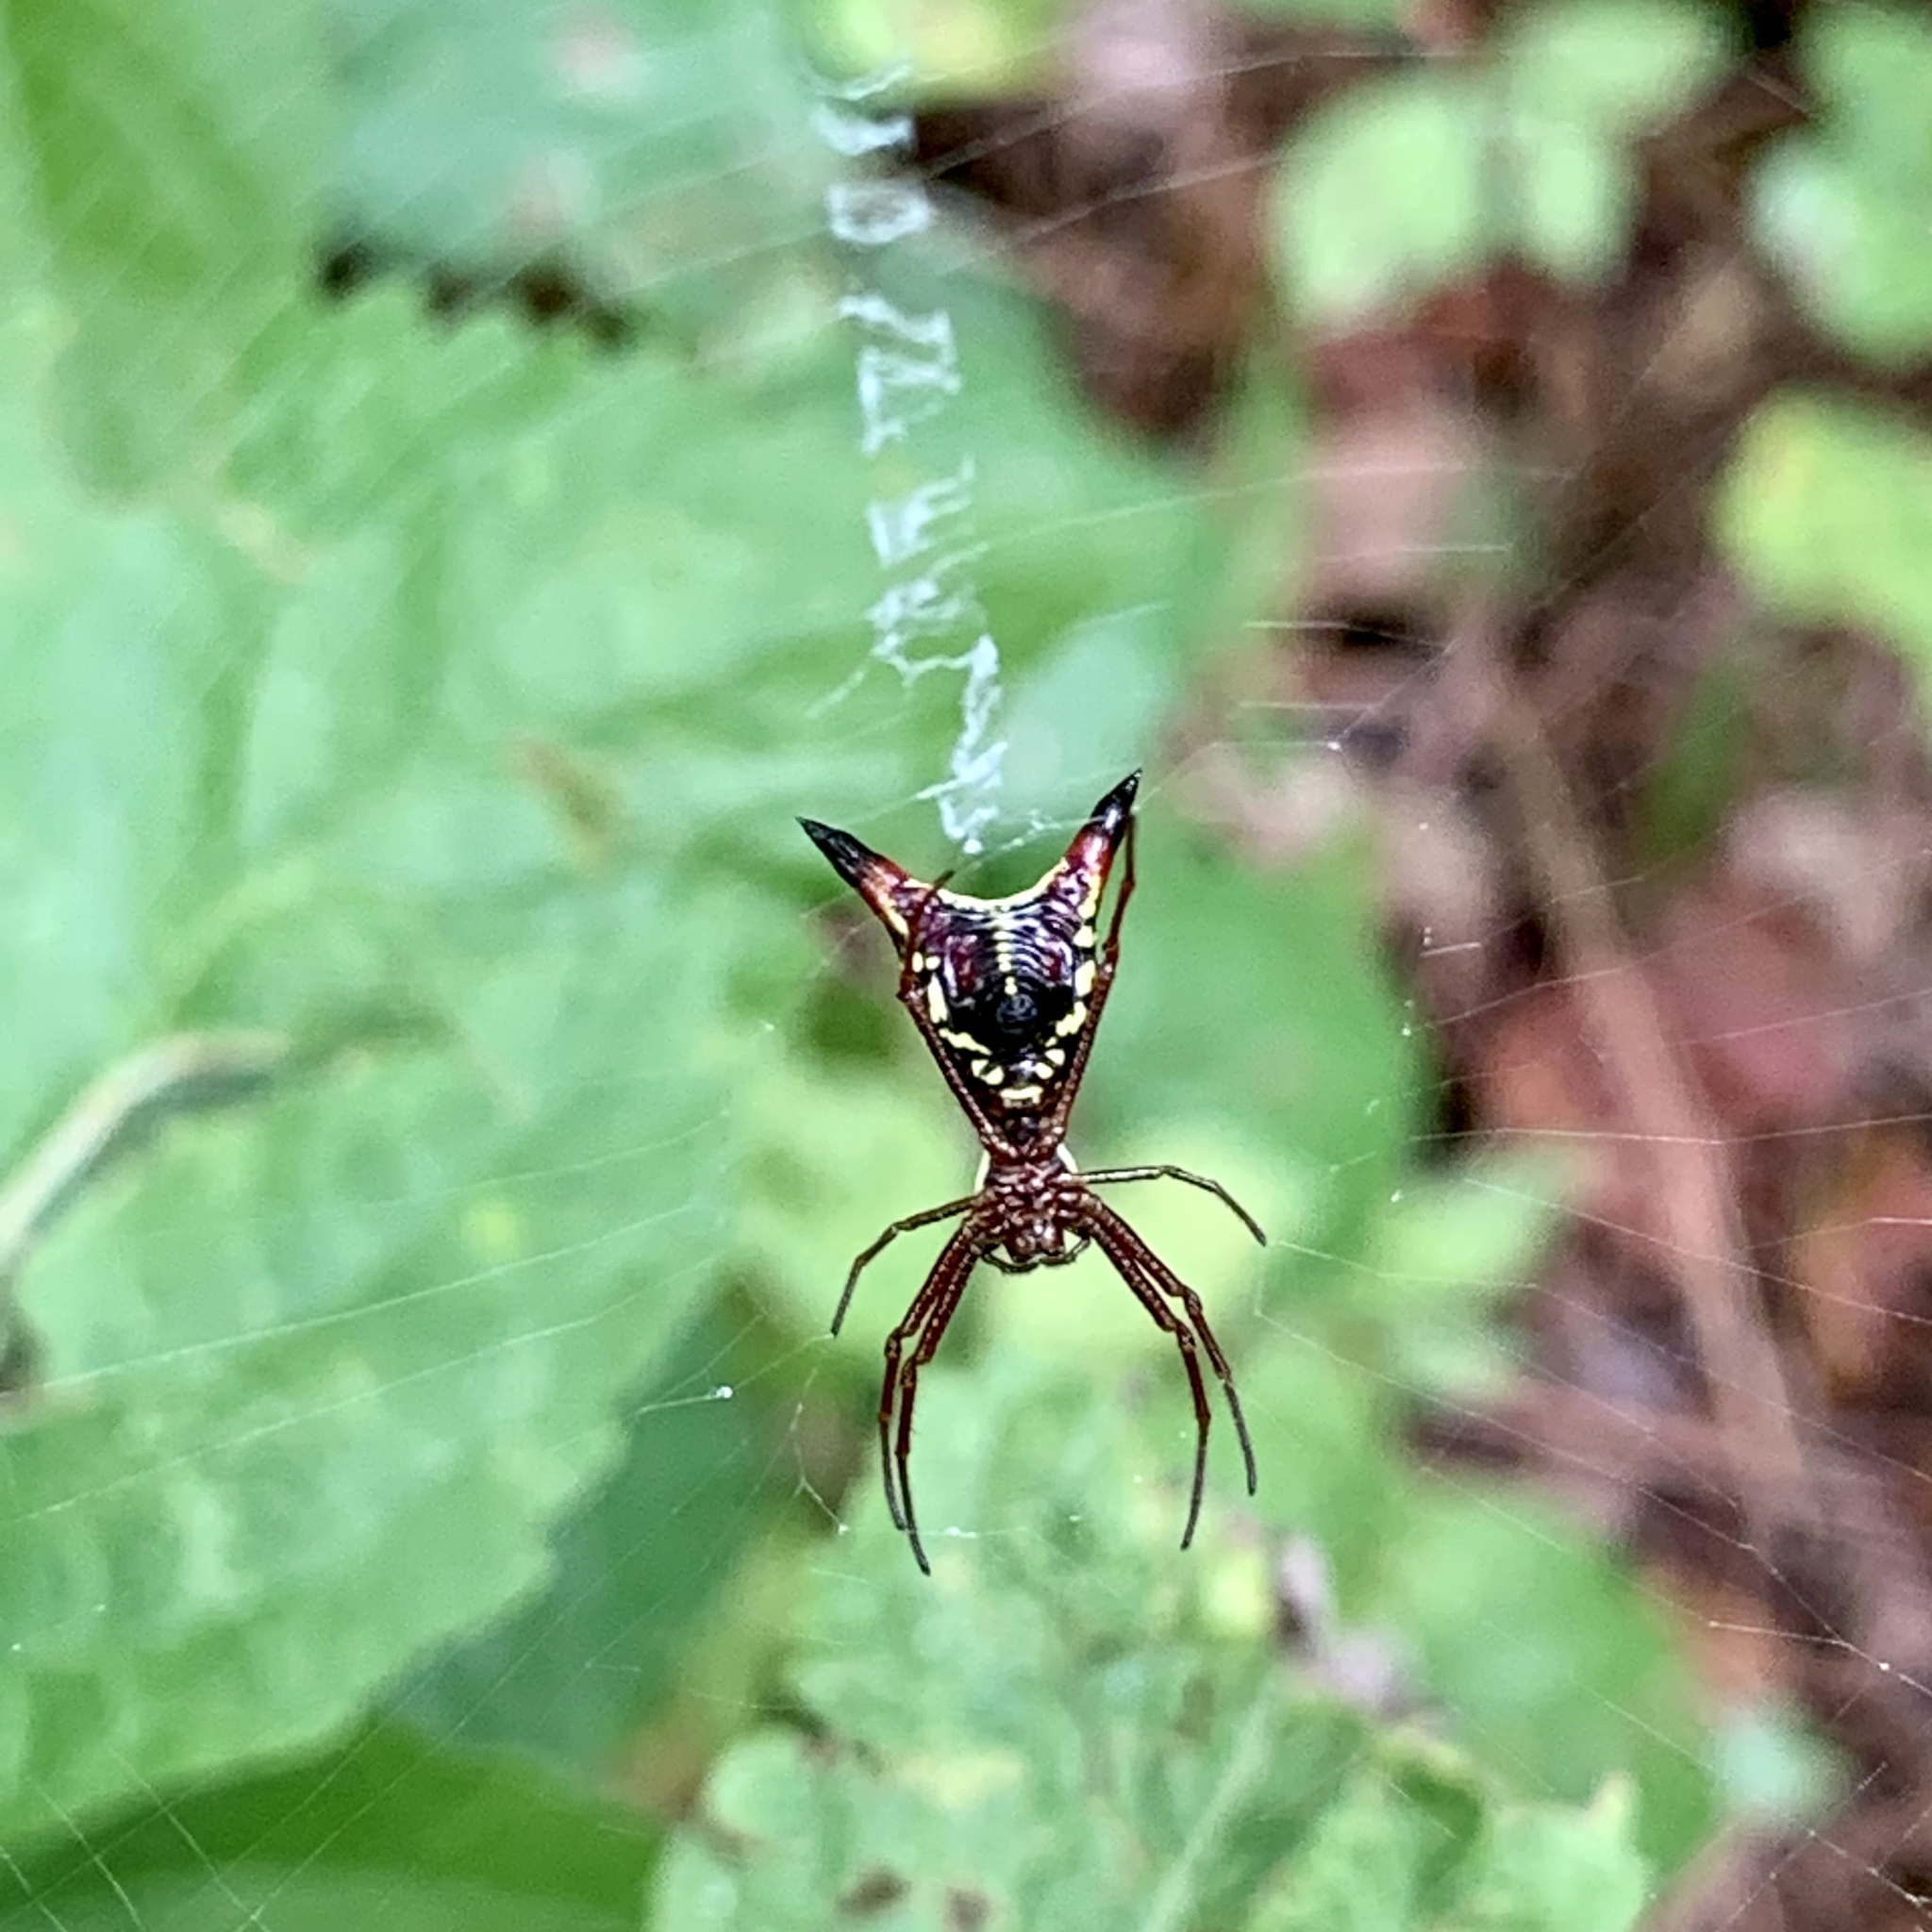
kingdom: Animalia
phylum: Arthropoda
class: Arachnida
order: Araneae
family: Araneidae
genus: Micrathena
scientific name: Micrathena sagittata
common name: Orb weavers
